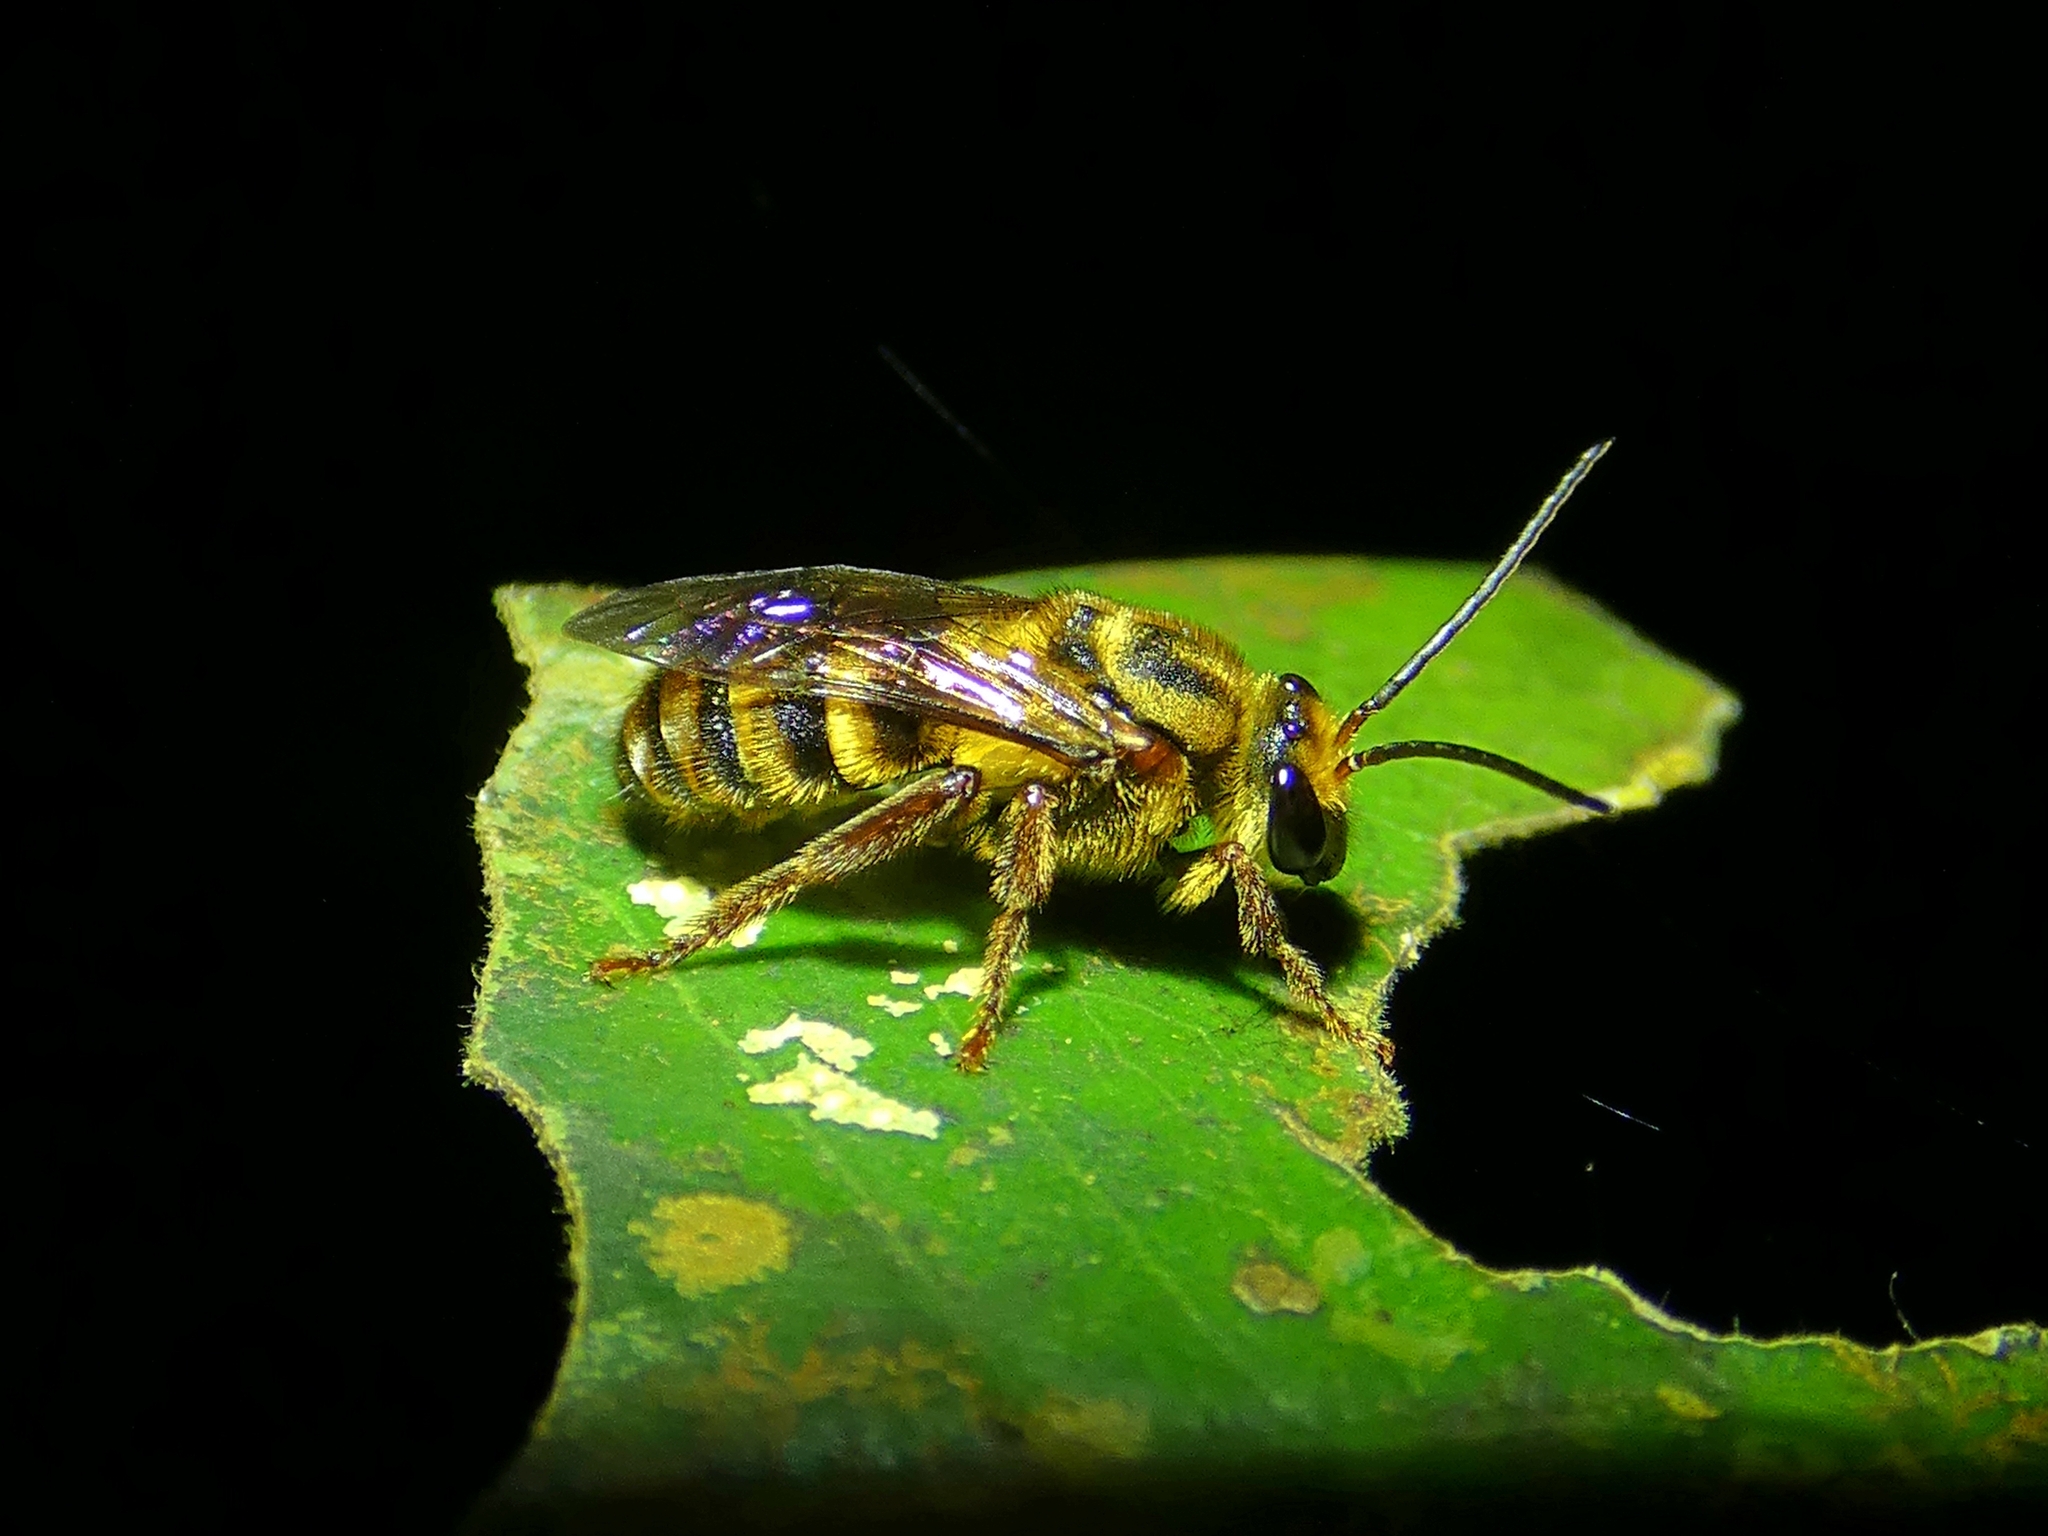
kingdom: Animalia
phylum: Arthropoda
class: Insecta
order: Hymenoptera
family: Halictidae
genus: Mellitidia
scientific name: Mellitidia tomentifera
